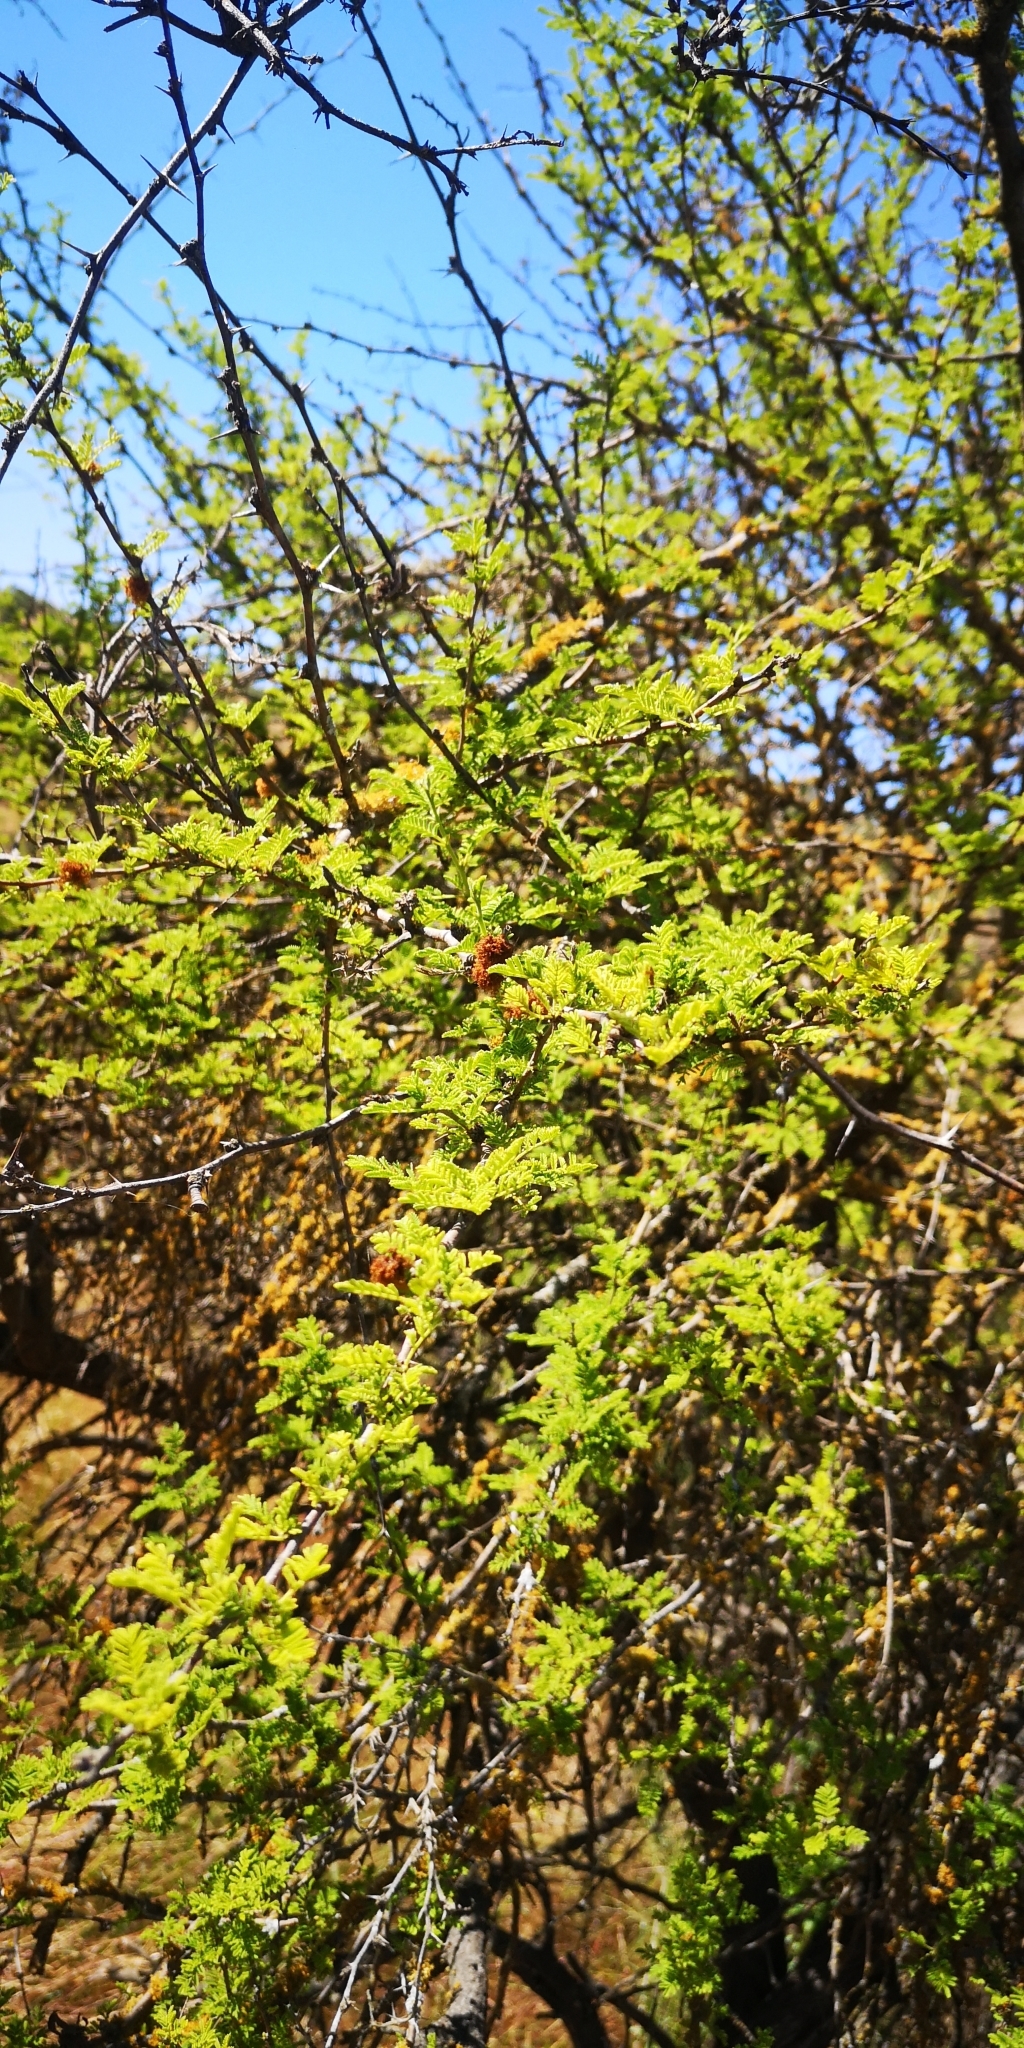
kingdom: Plantae
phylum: Tracheophyta
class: Magnoliopsida
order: Fabales
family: Fabaceae
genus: Vachellia
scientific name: Vachellia caven
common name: Roman cassie
